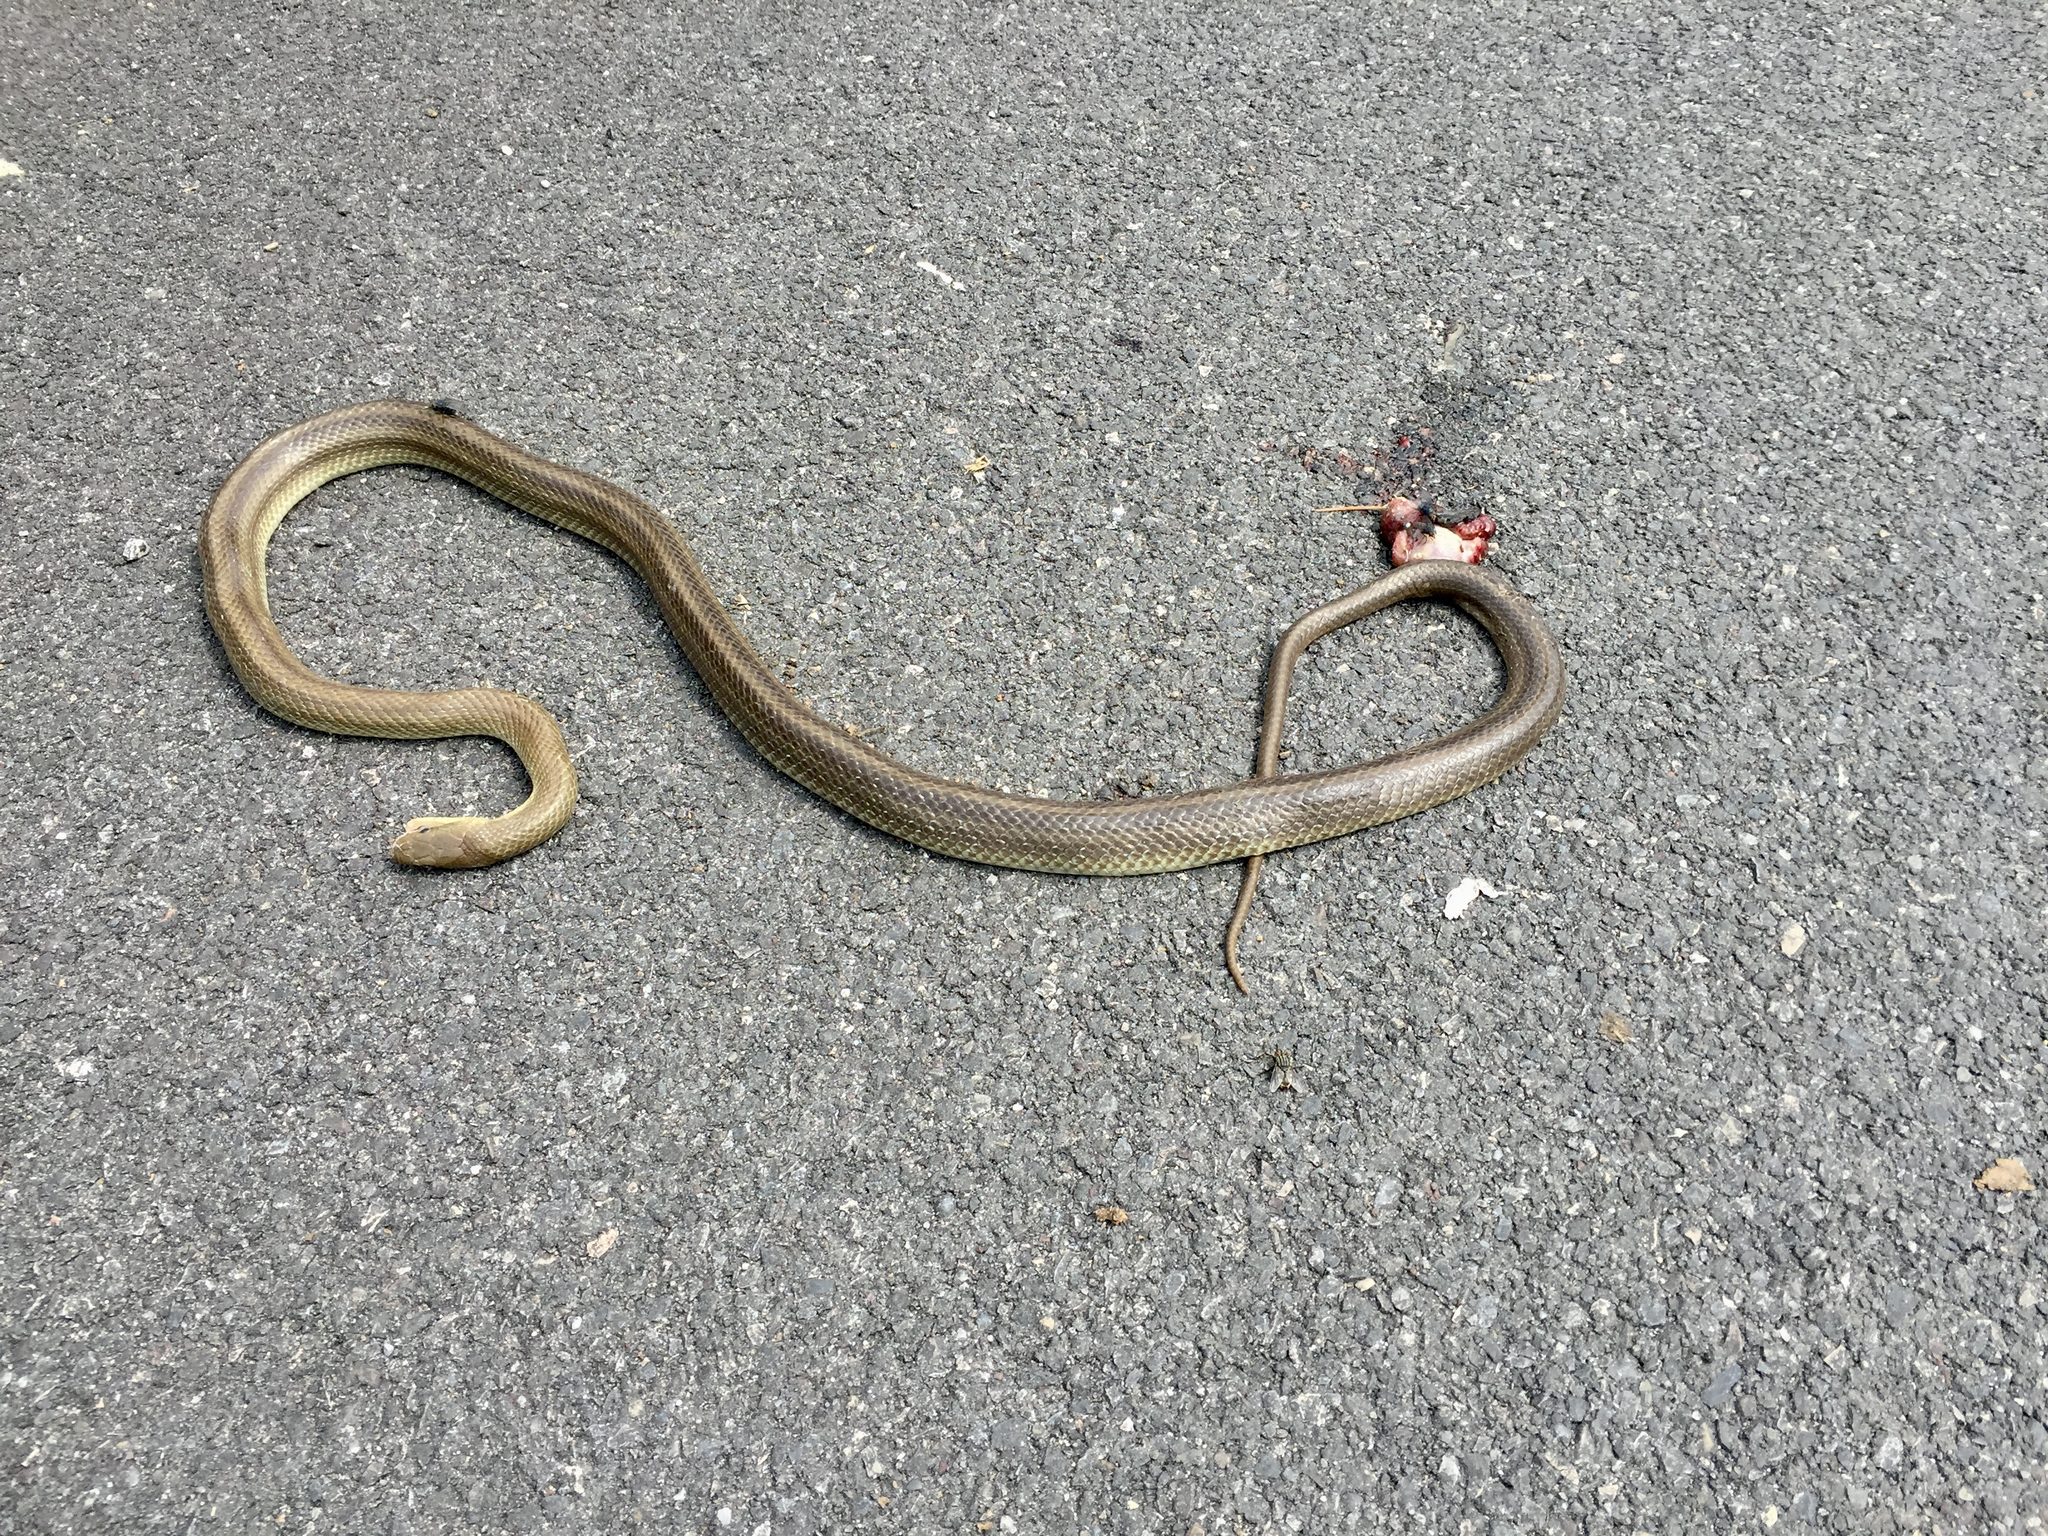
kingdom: Animalia
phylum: Chordata
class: Squamata
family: Colubridae
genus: Zamenis
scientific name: Zamenis longissimus
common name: Aesculapean snake
